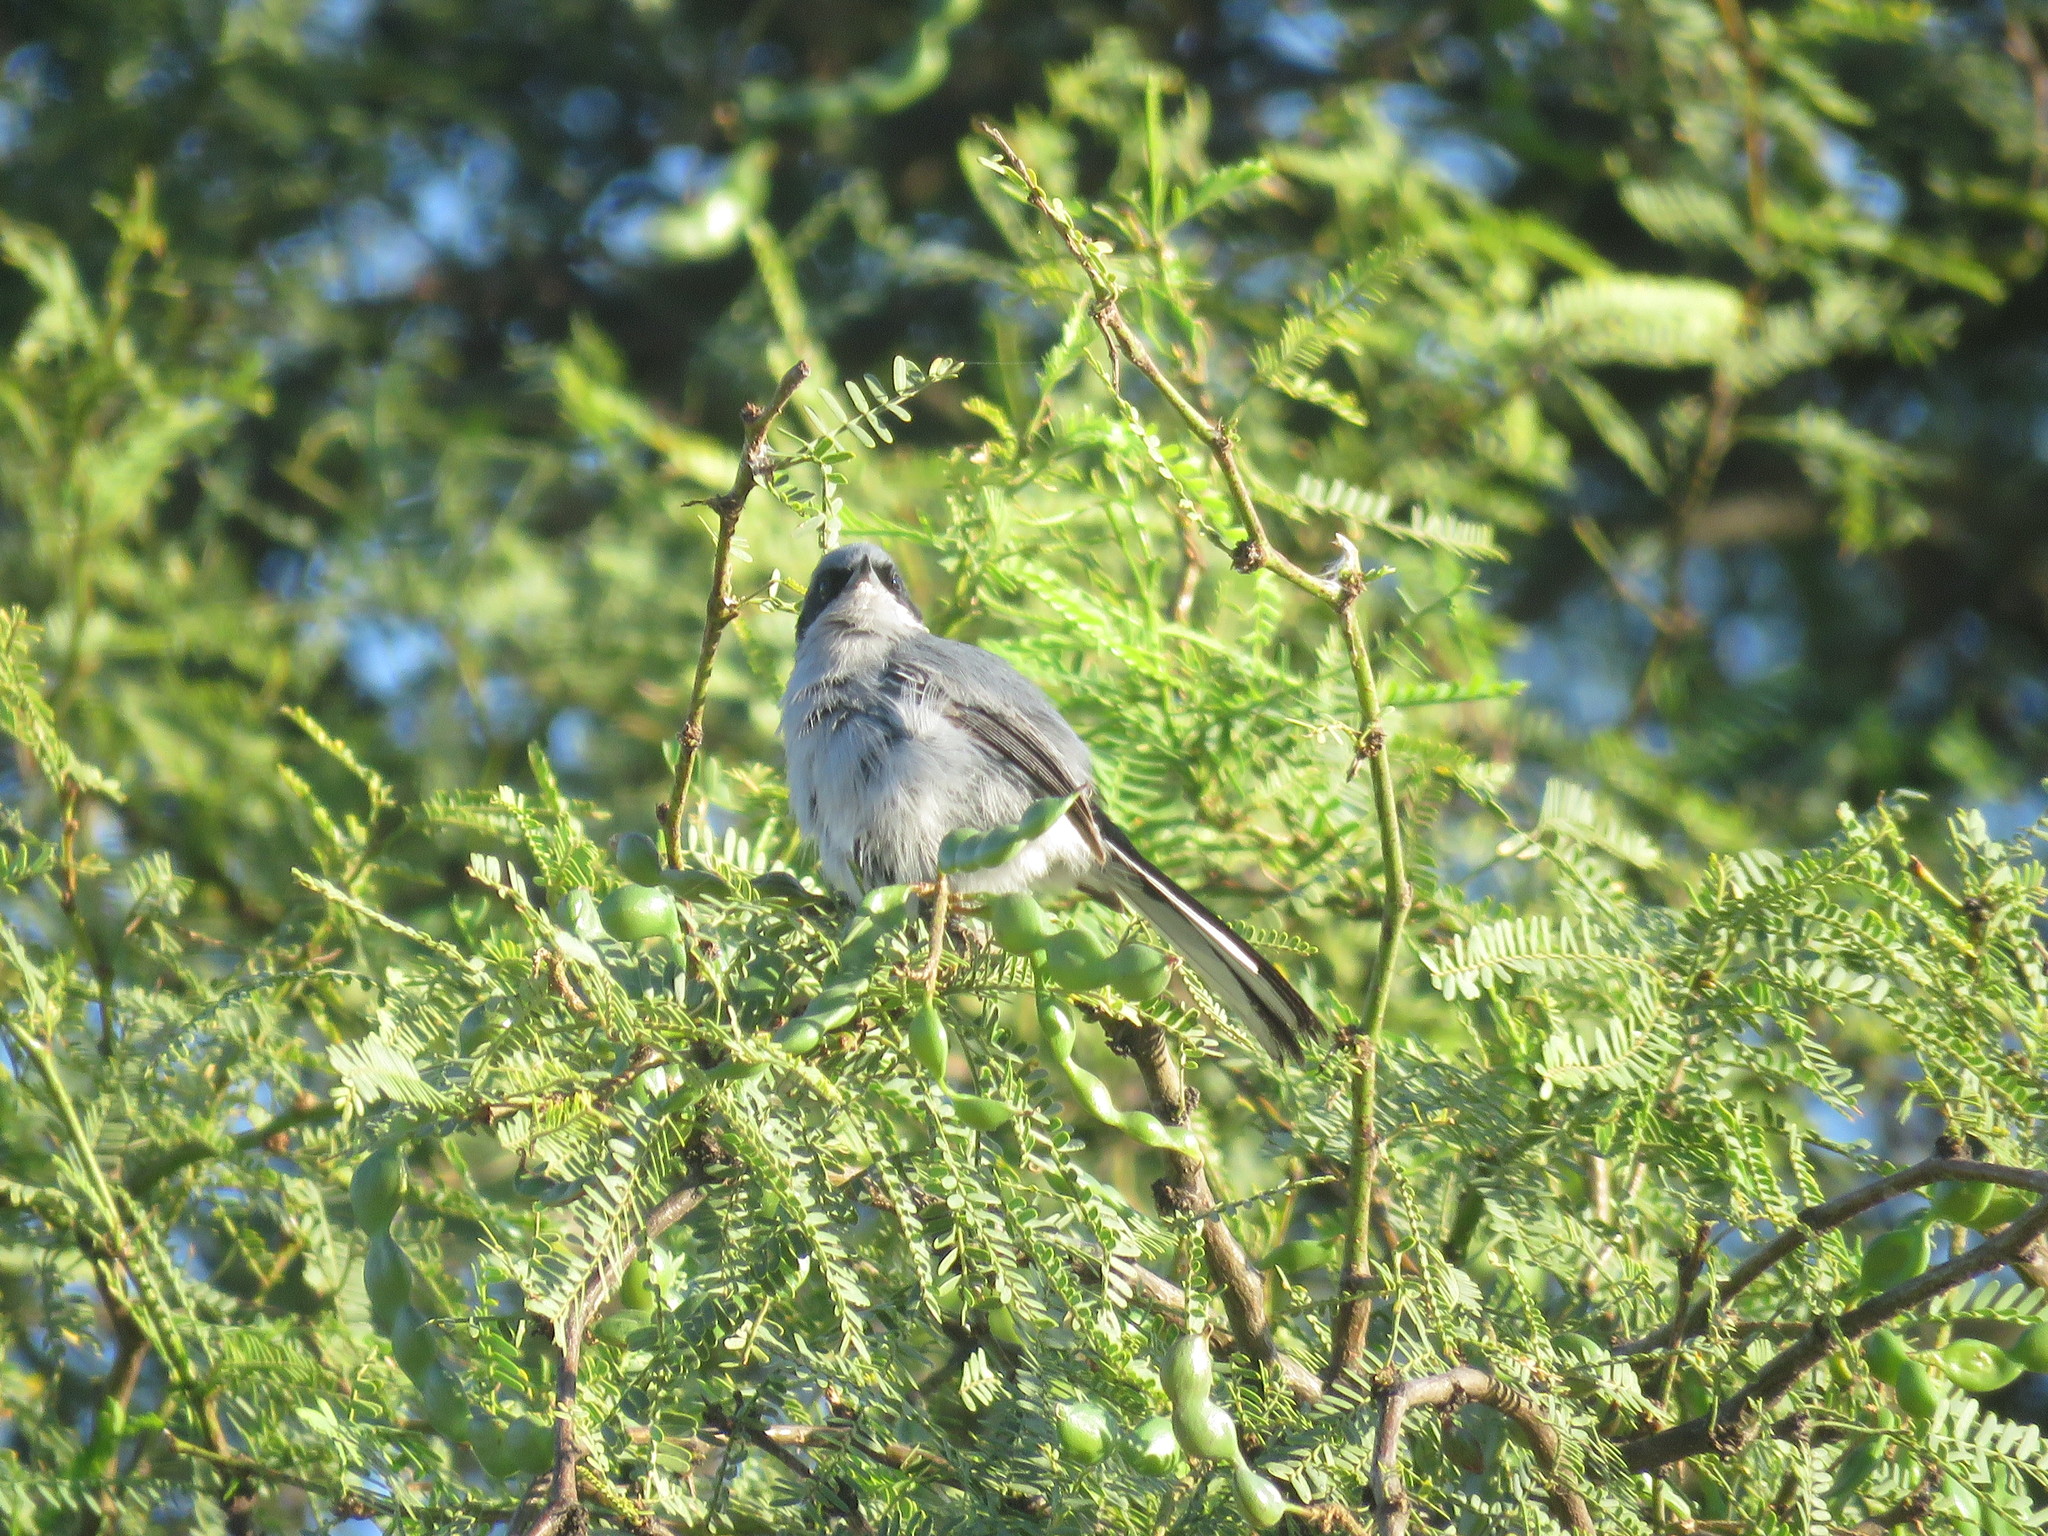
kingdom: Animalia
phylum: Chordata
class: Aves
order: Passeriformes
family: Polioptilidae
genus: Polioptila
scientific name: Polioptila dumicola
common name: Masked gnatcatcher
